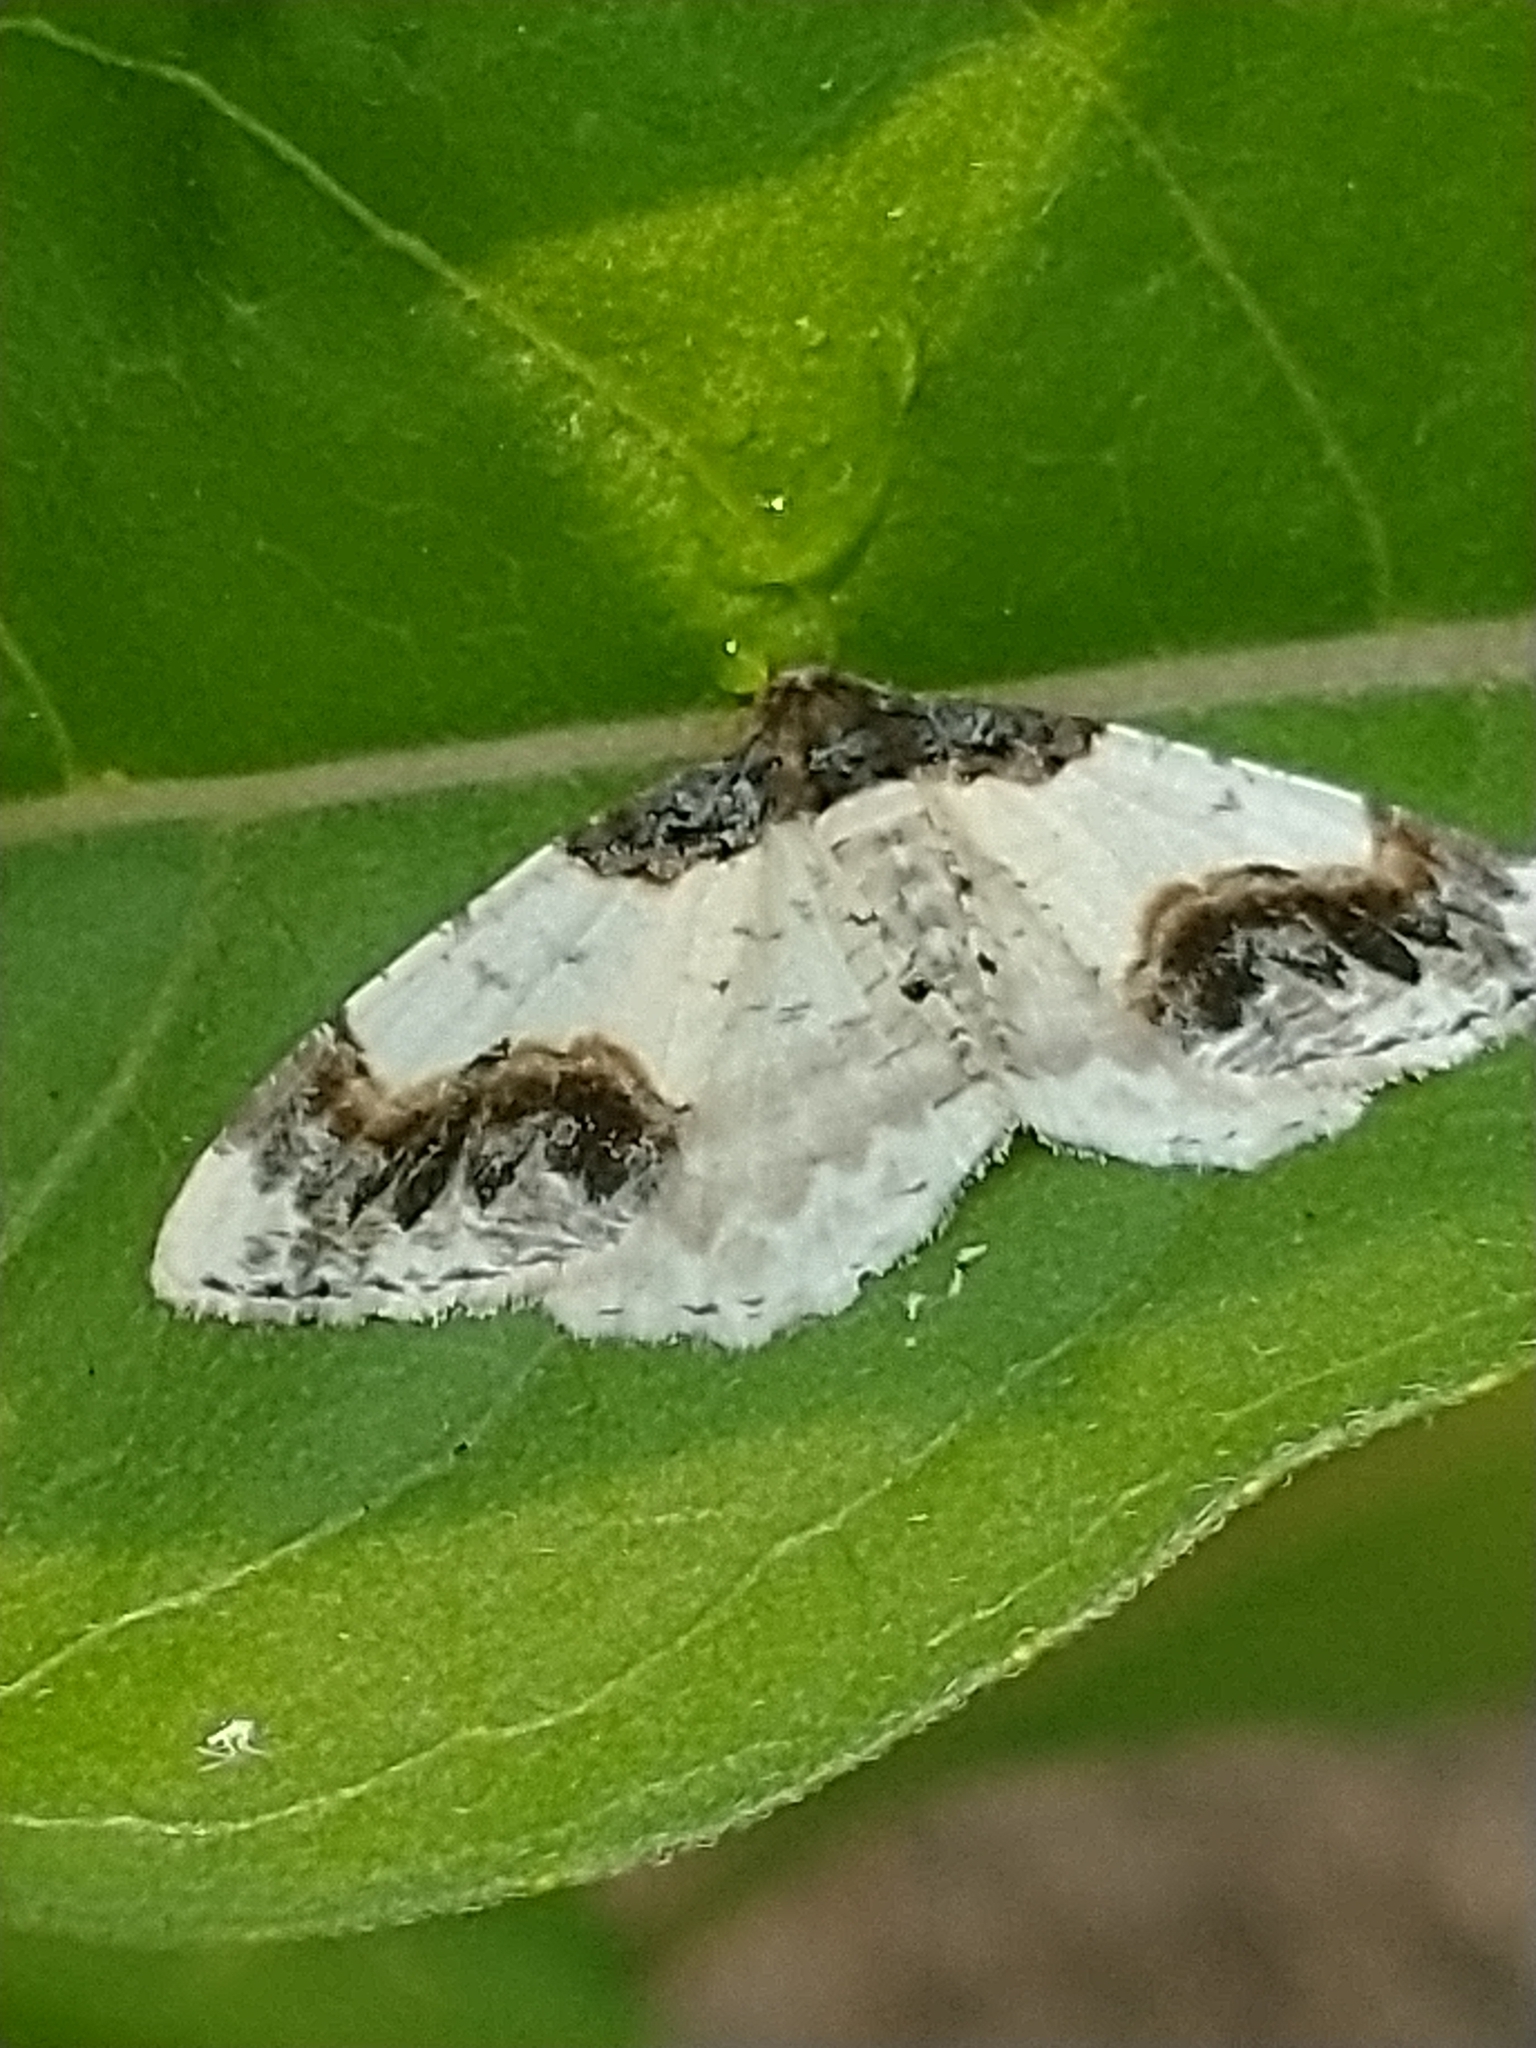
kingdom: Animalia
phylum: Arthropoda
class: Insecta
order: Lepidoptera
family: Geometridae
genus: Ligdia
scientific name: Ligdia adustata
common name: Scorched carpet
